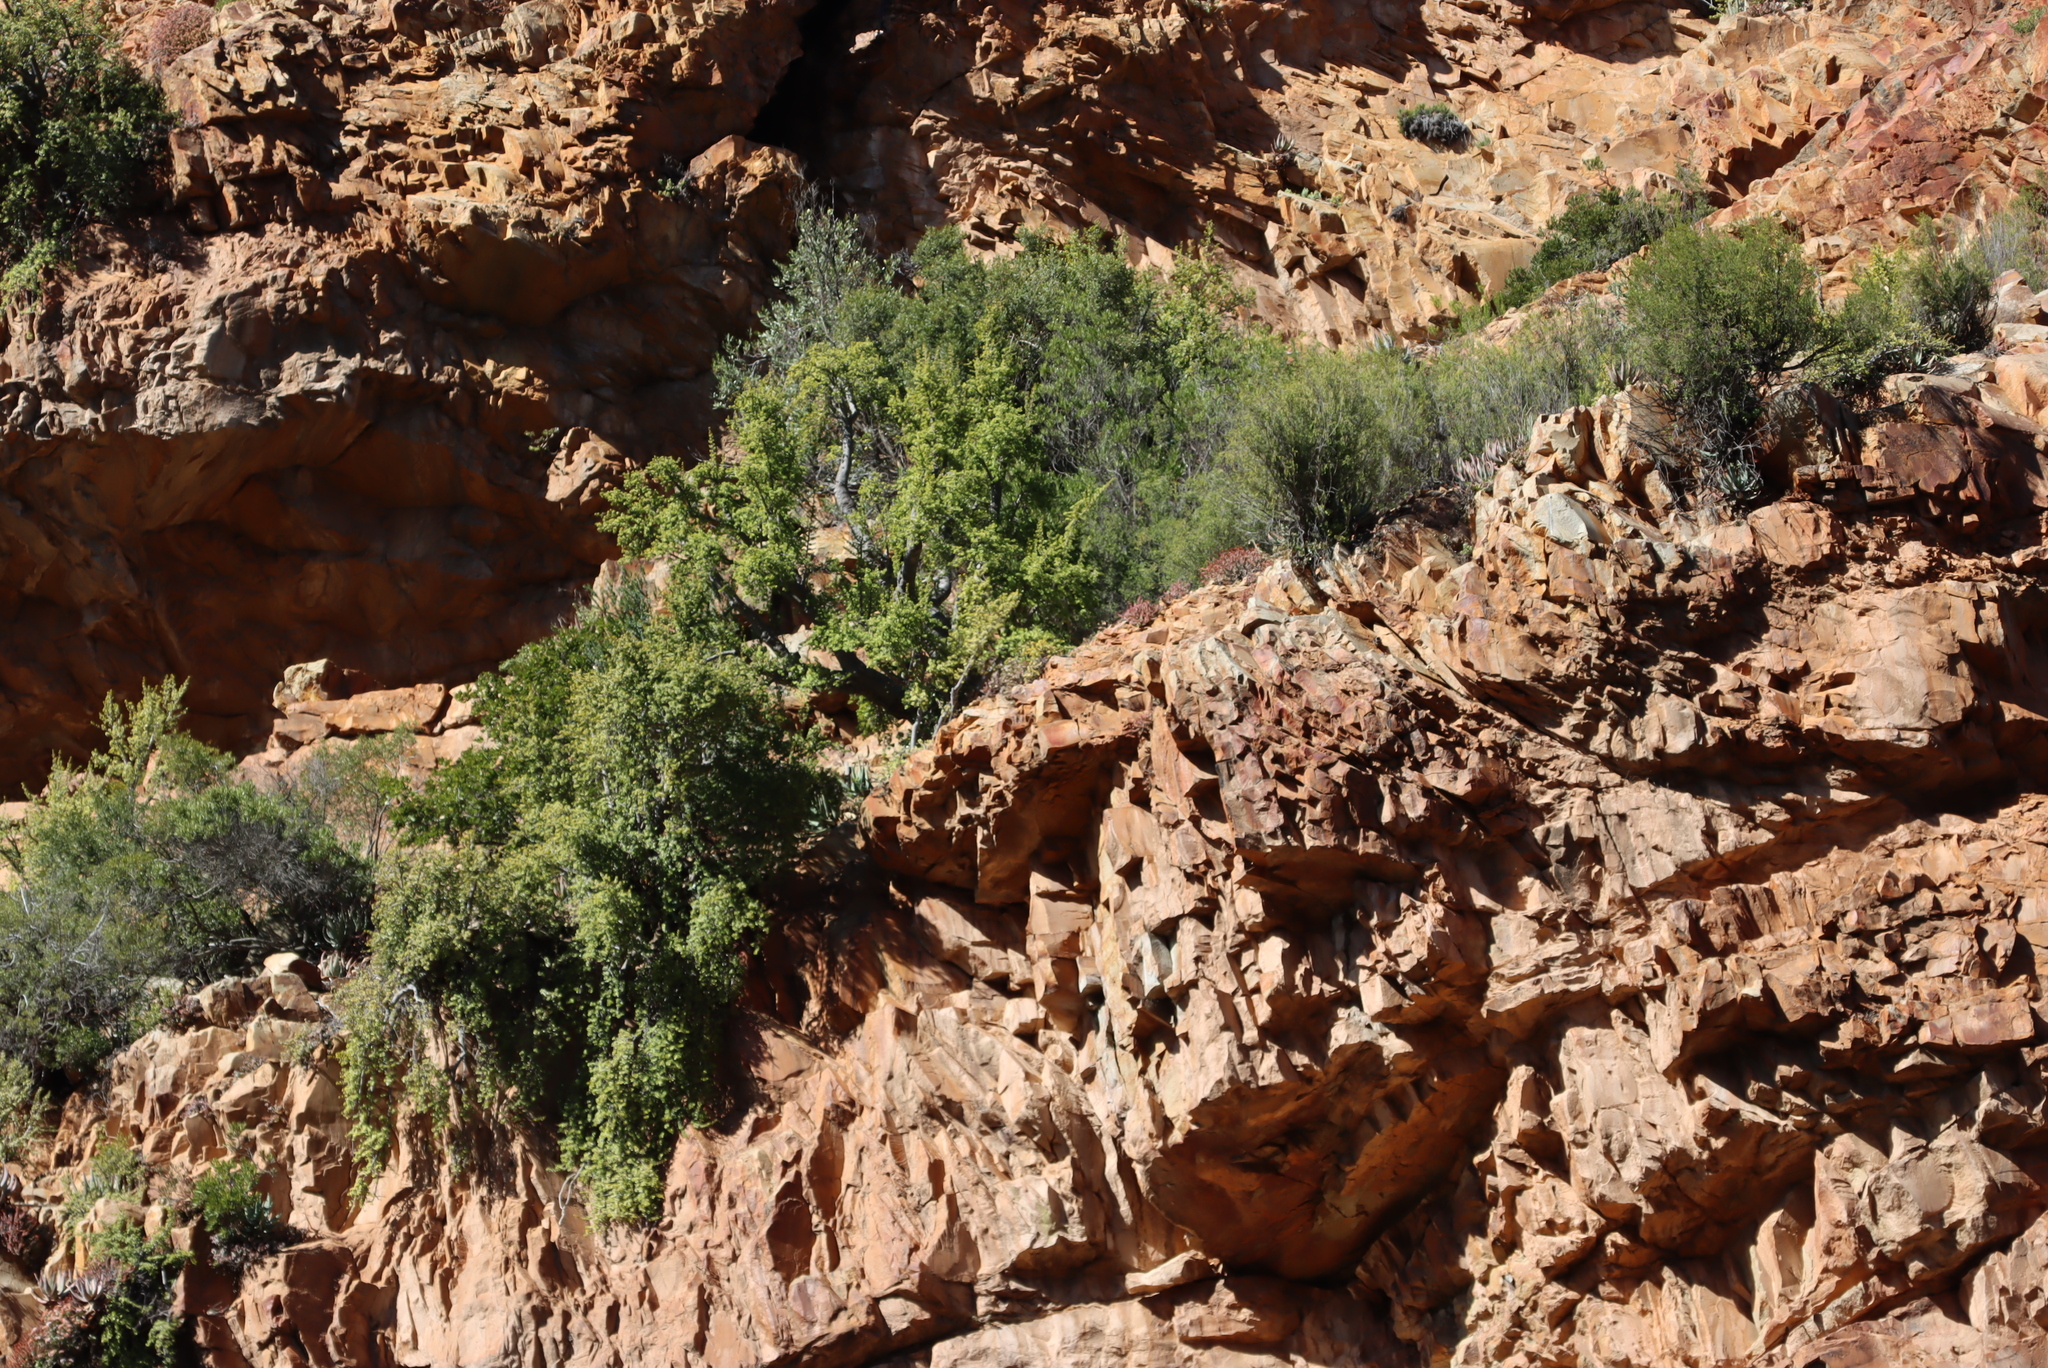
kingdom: Plantae
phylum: Tracheophyta
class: Magnoliopsida
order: Caryophyllales
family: Didiereaceae
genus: Portulacaria
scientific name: Portulacaria afra
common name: Elephant-bush
